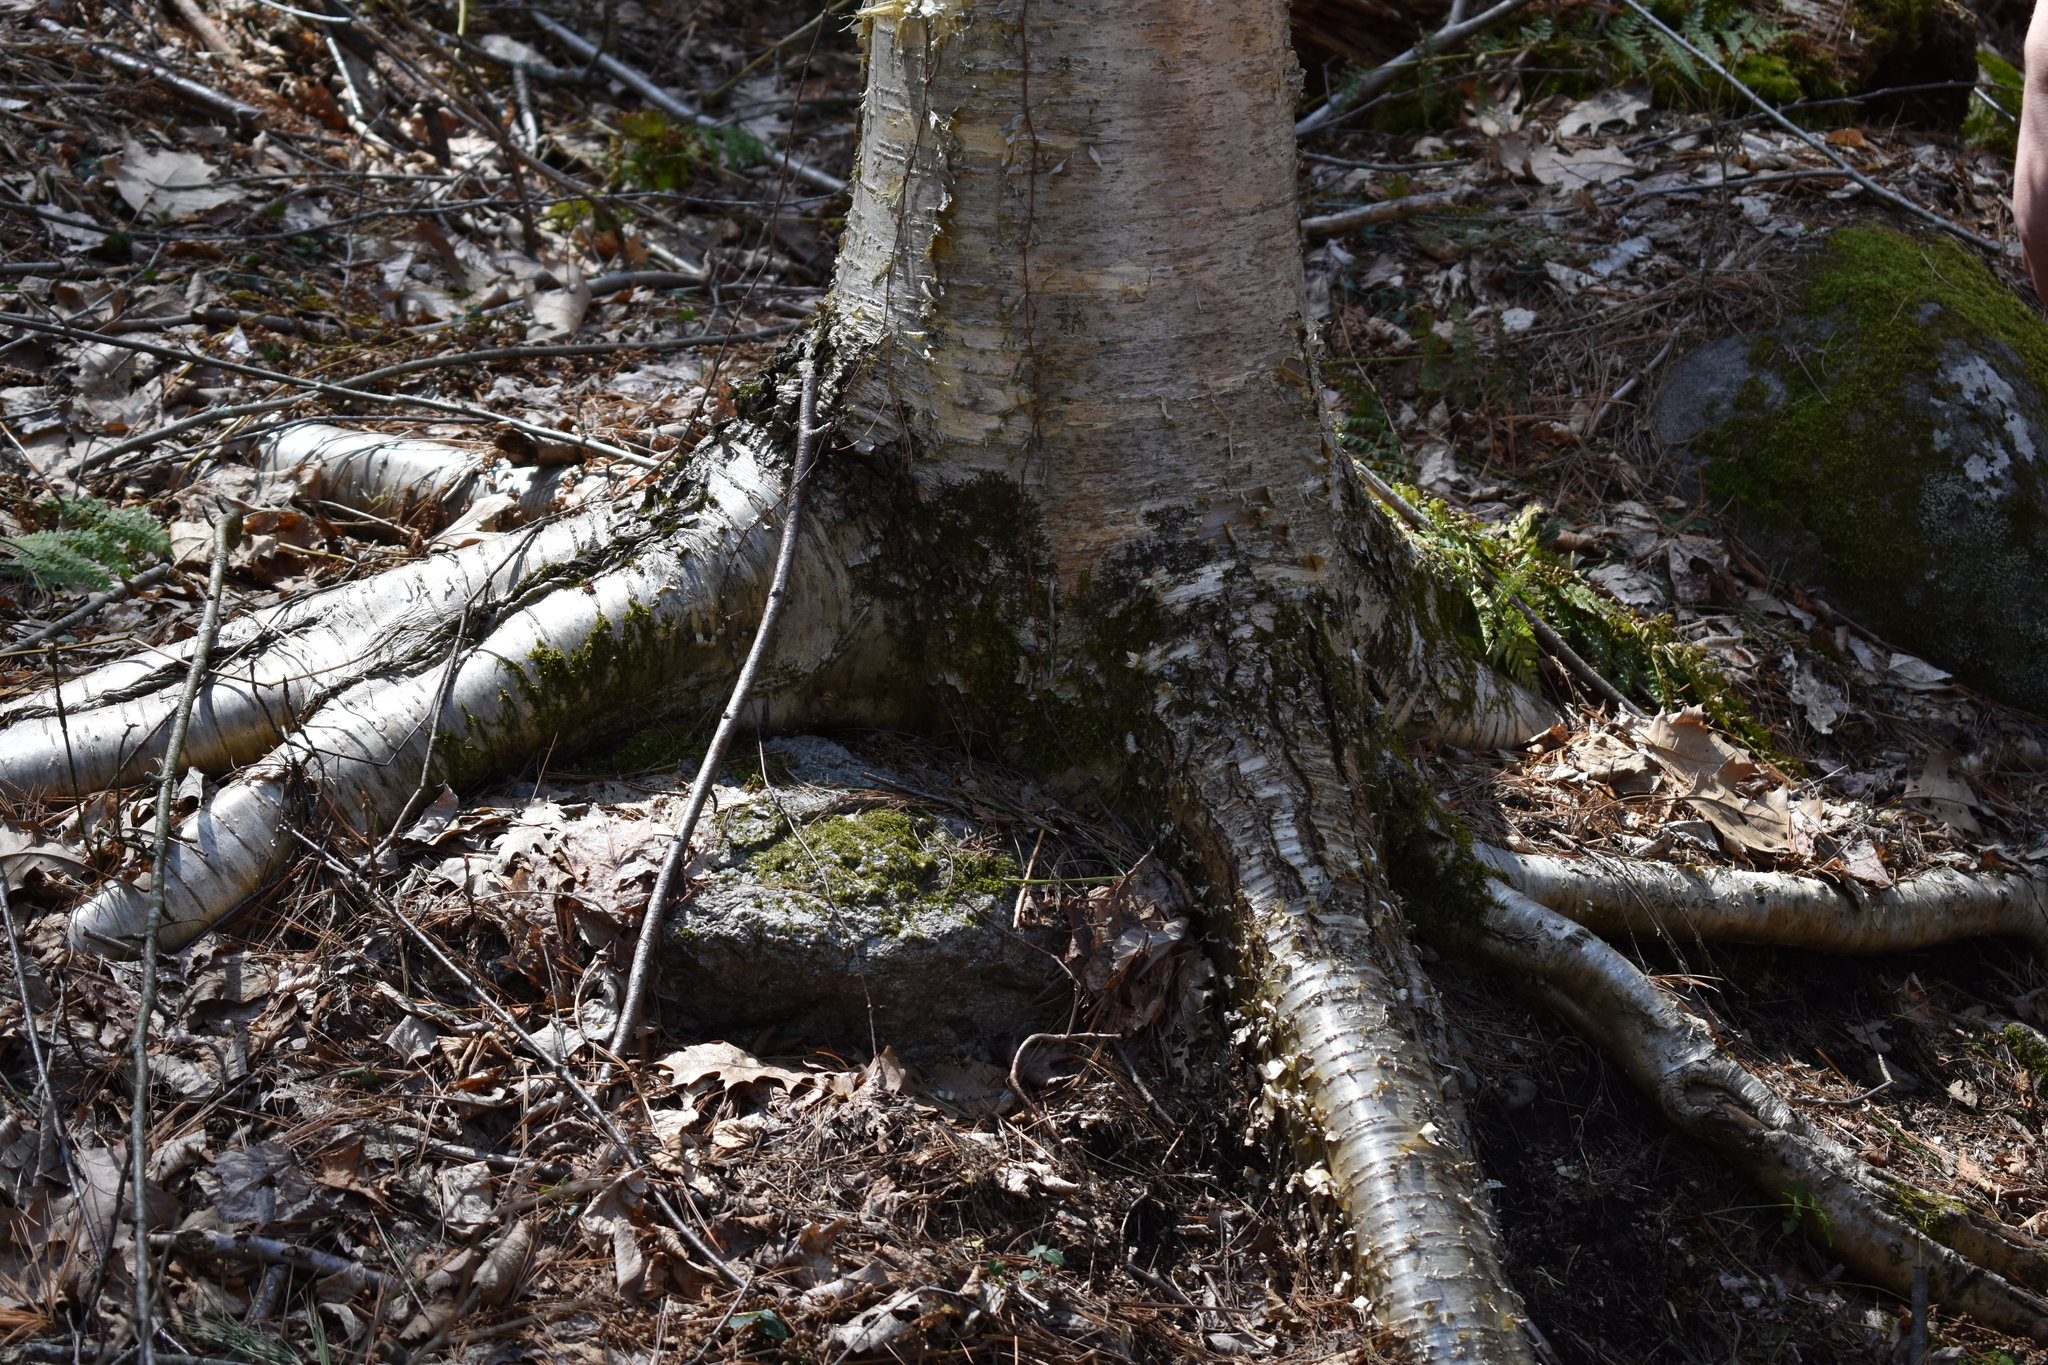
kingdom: Plantae
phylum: Tracheophyta
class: Magnoliopsida
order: Fagales
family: Betulaceae
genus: Betula
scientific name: Betula alleghaniensis
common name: Yellow birch
